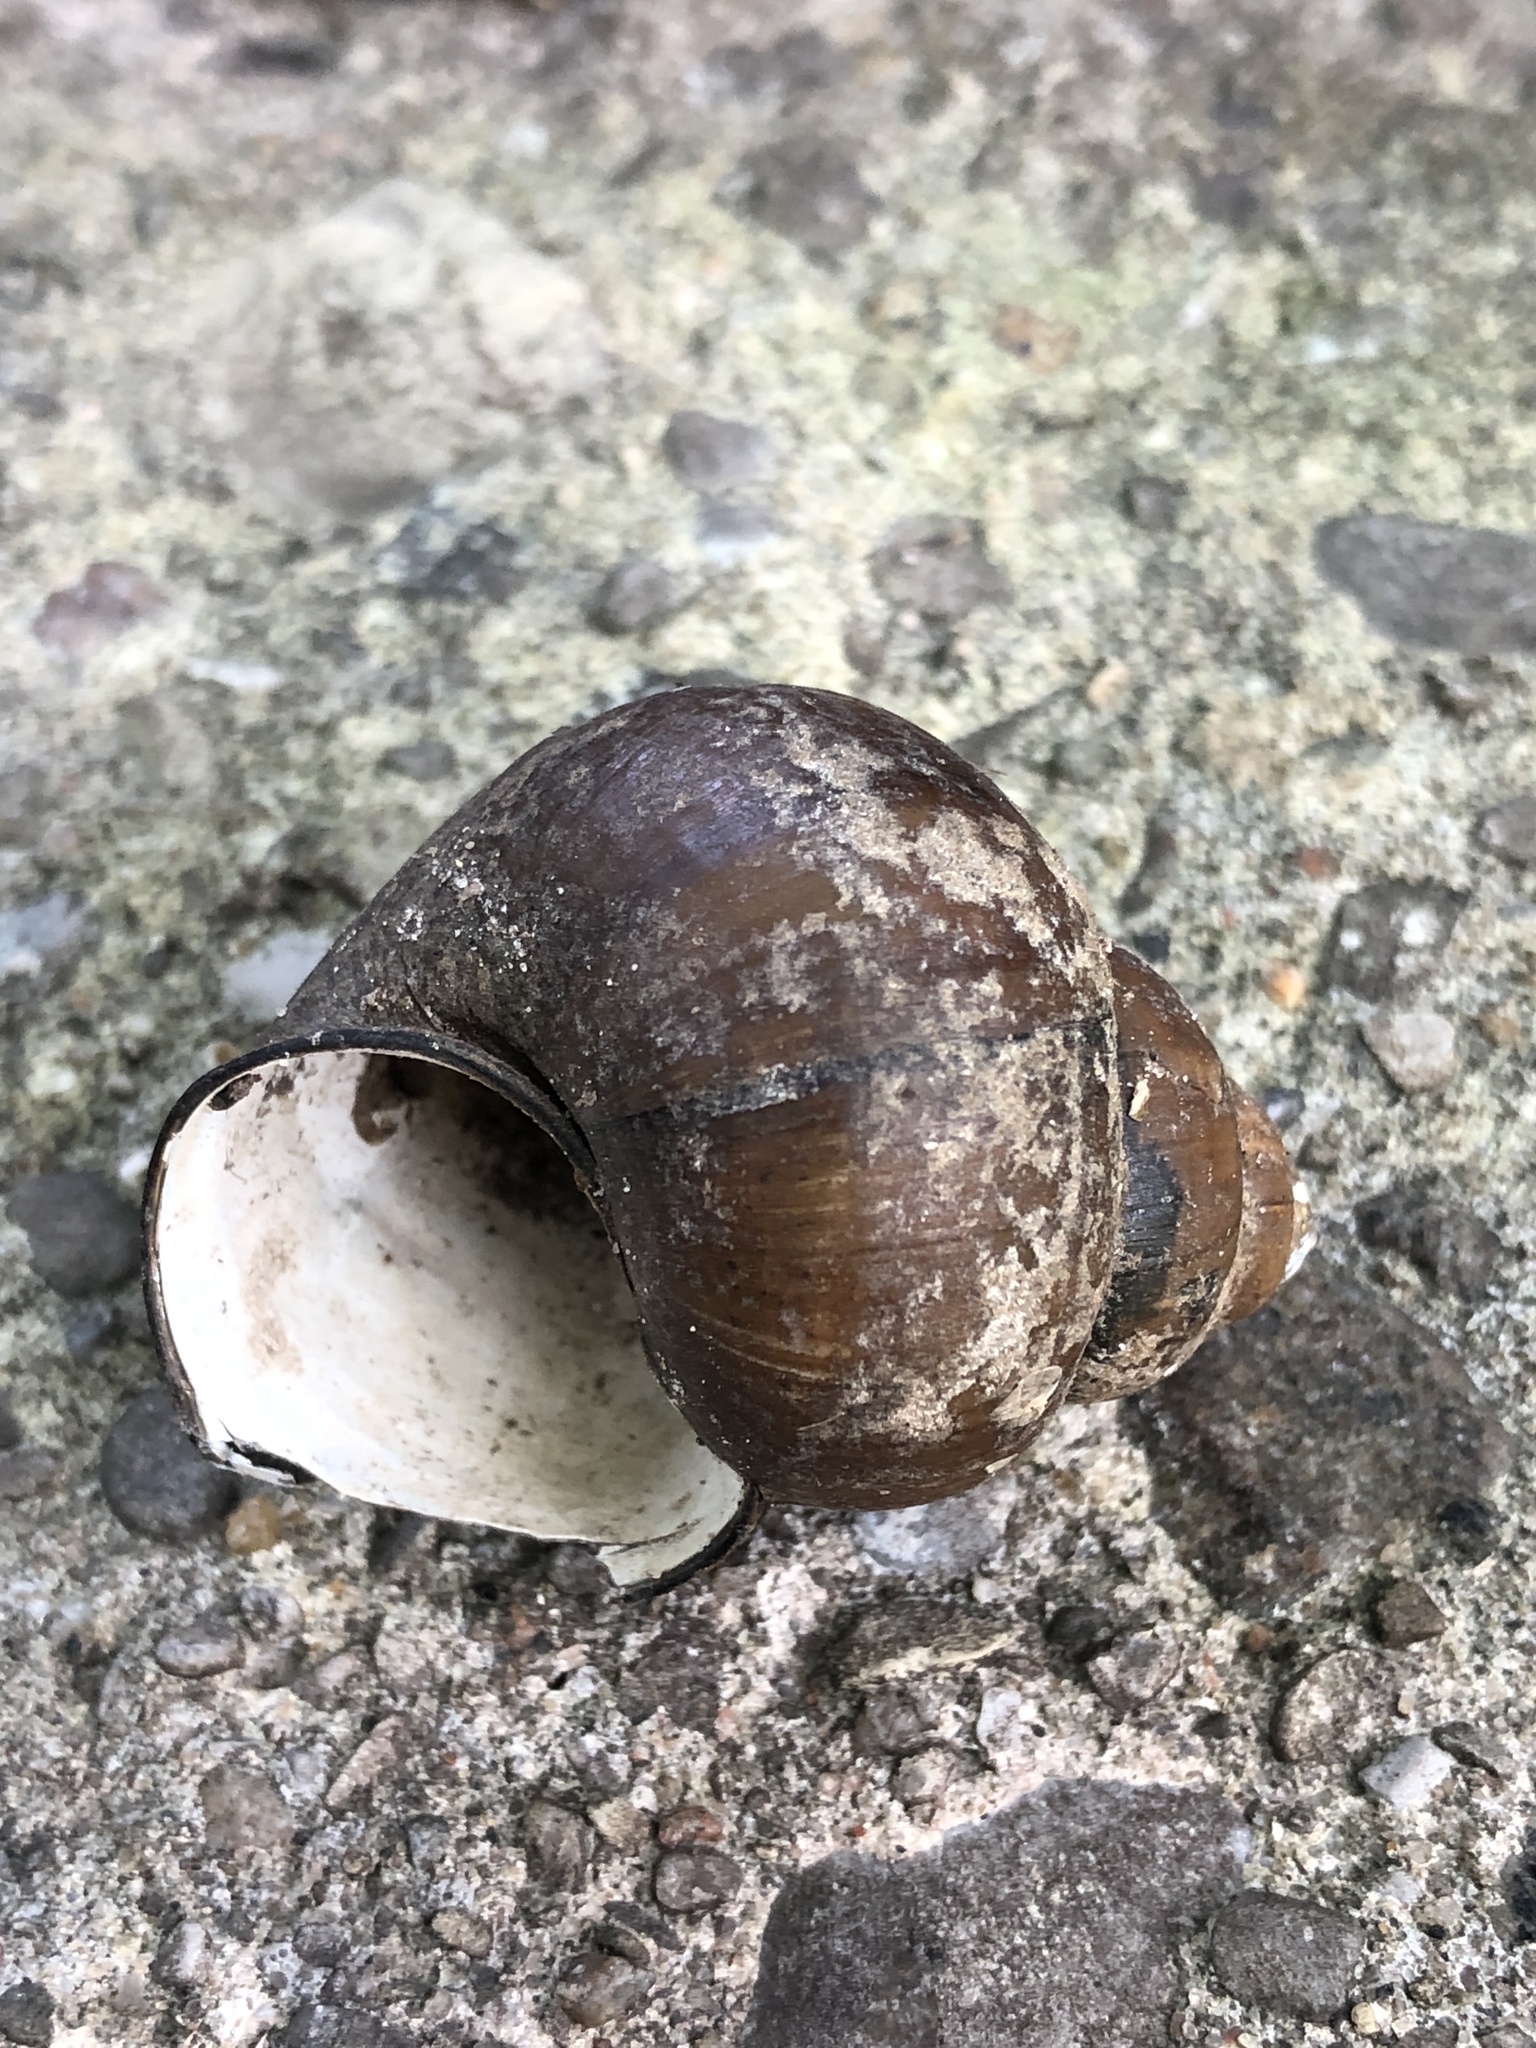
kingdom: Animalia
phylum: Mollusca
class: Gastropoda
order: Architaenioglossa
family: Viviparidae
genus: Cipangopaludina
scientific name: Cipangopaludina chinensis
